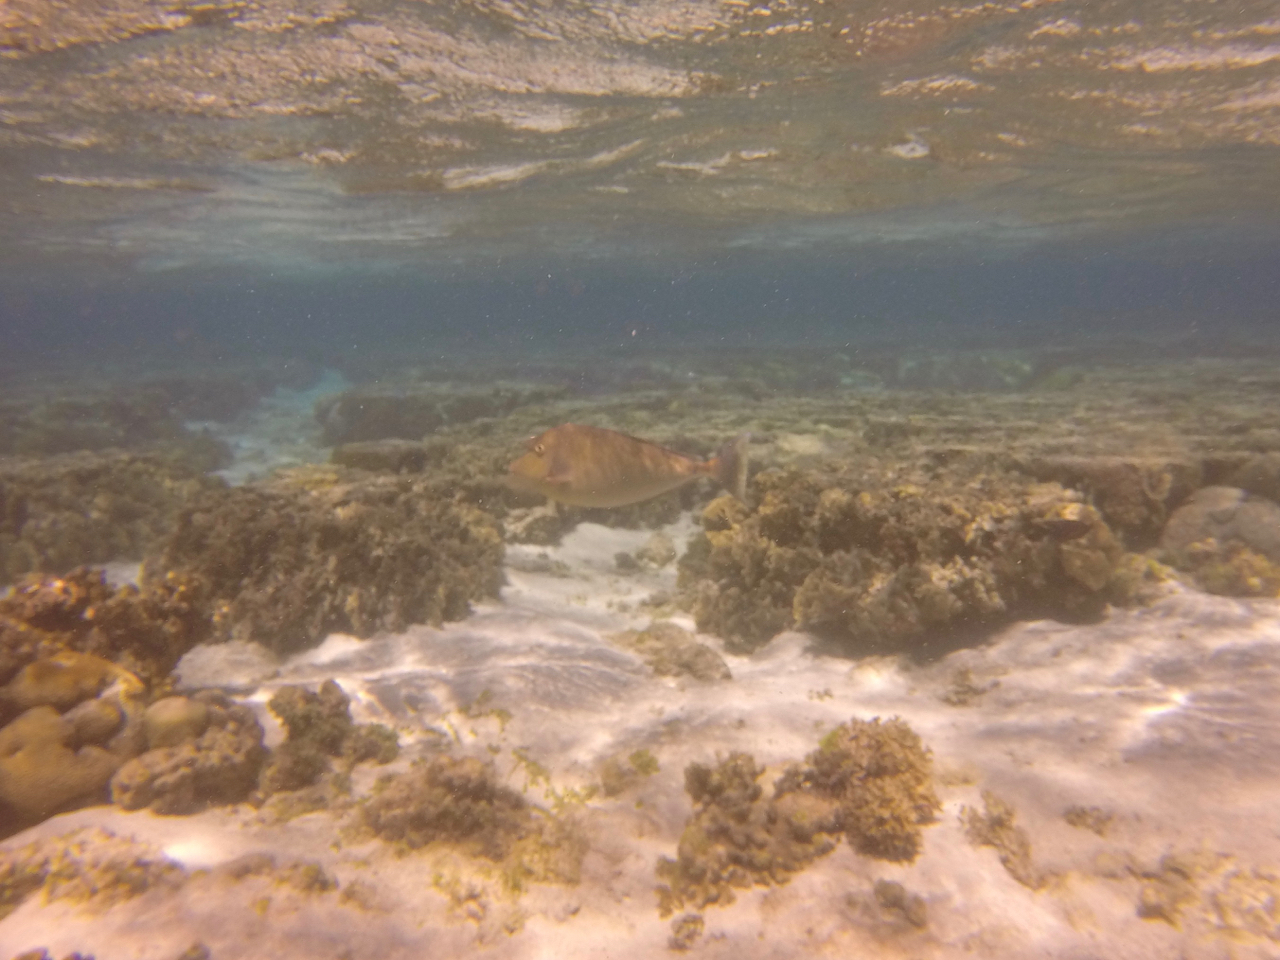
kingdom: Animalia
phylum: Chordata
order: Perciformes
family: Acanthuridae
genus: Naso
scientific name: Naso unicornis
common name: Bluespine unicornfish
